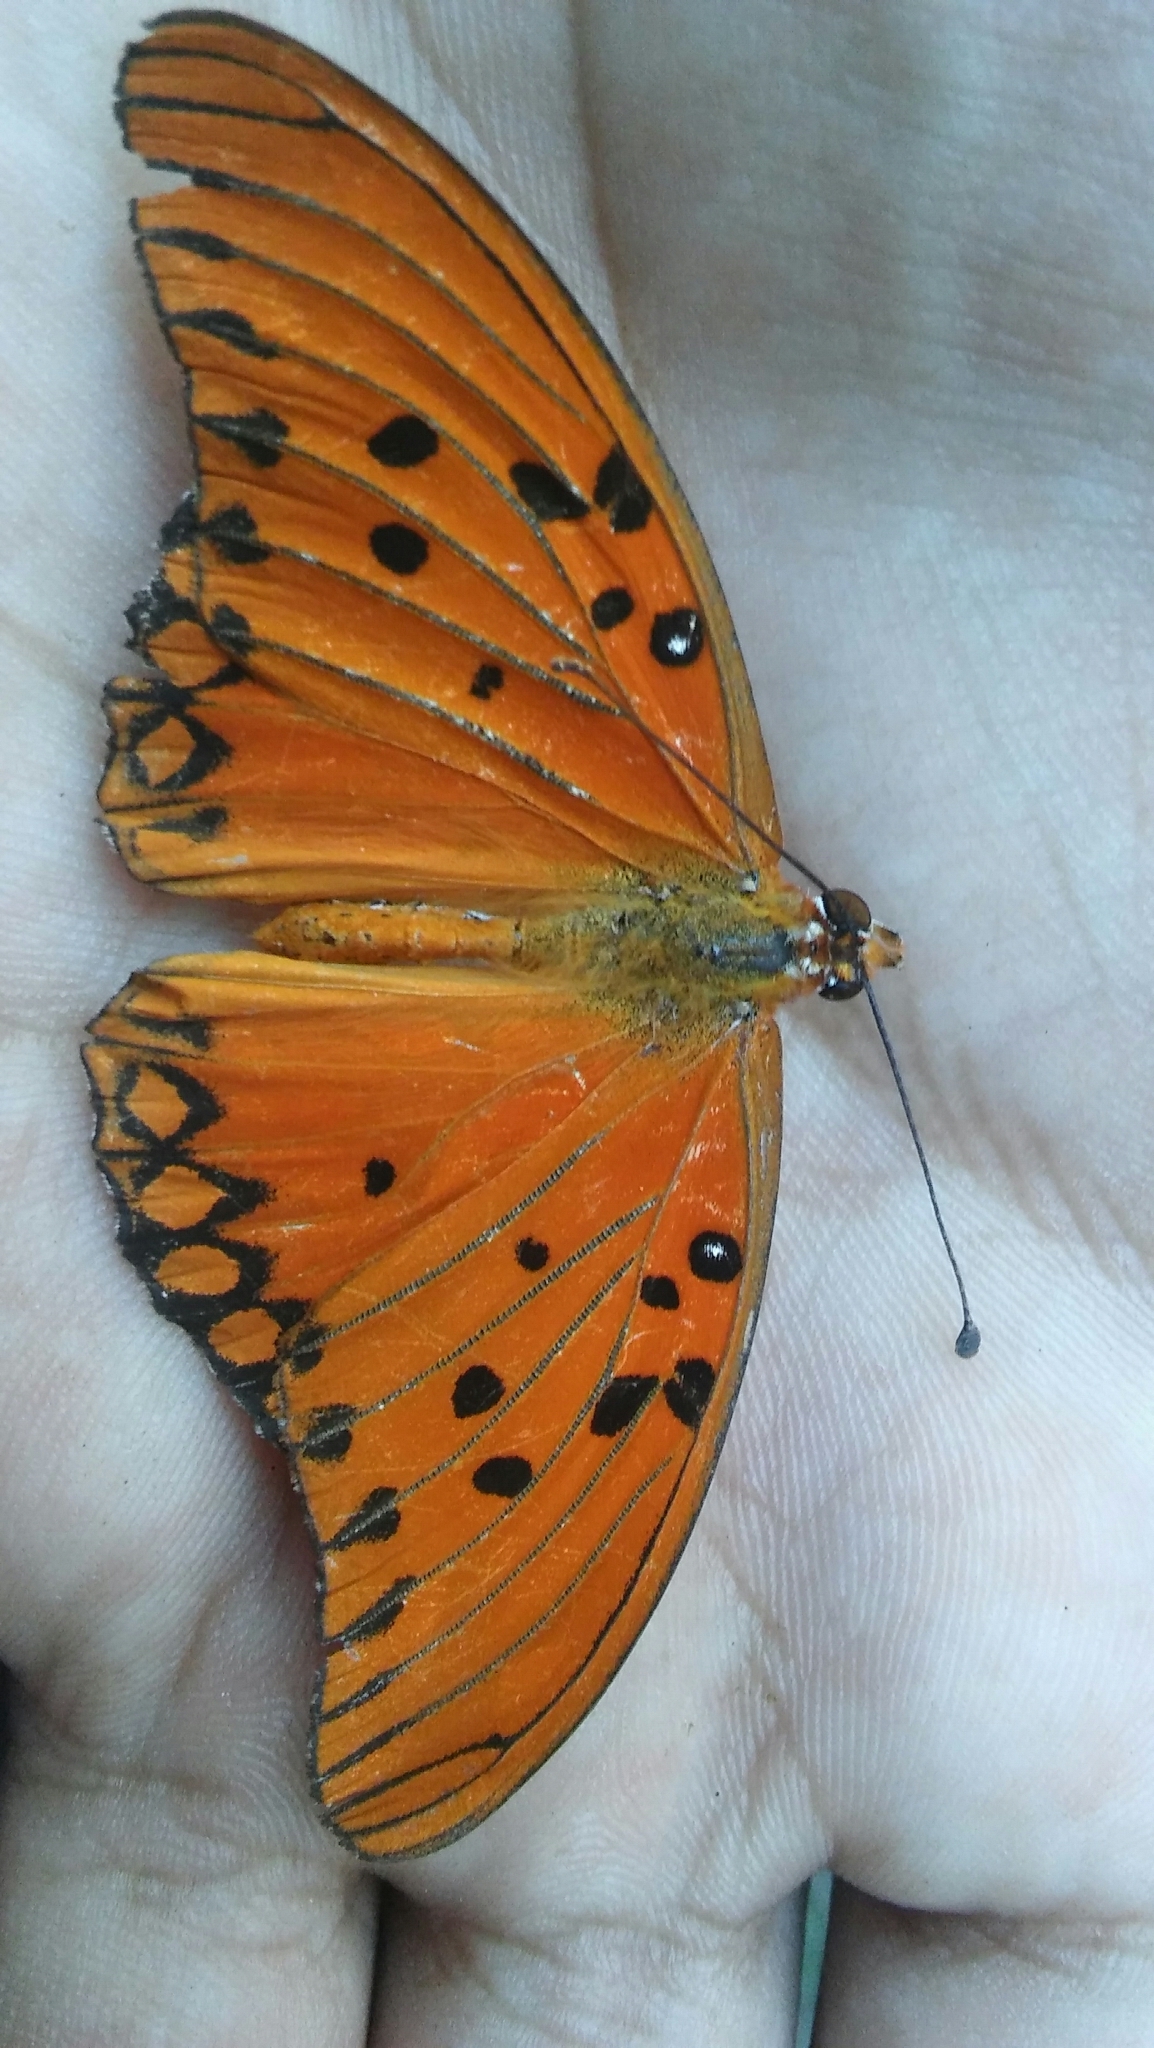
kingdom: Animalia
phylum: Arthropoda
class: Insecta
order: Lepidoptera
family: Nymphalidae
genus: Dione
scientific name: Dione vanillae
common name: Gulf fritillary
